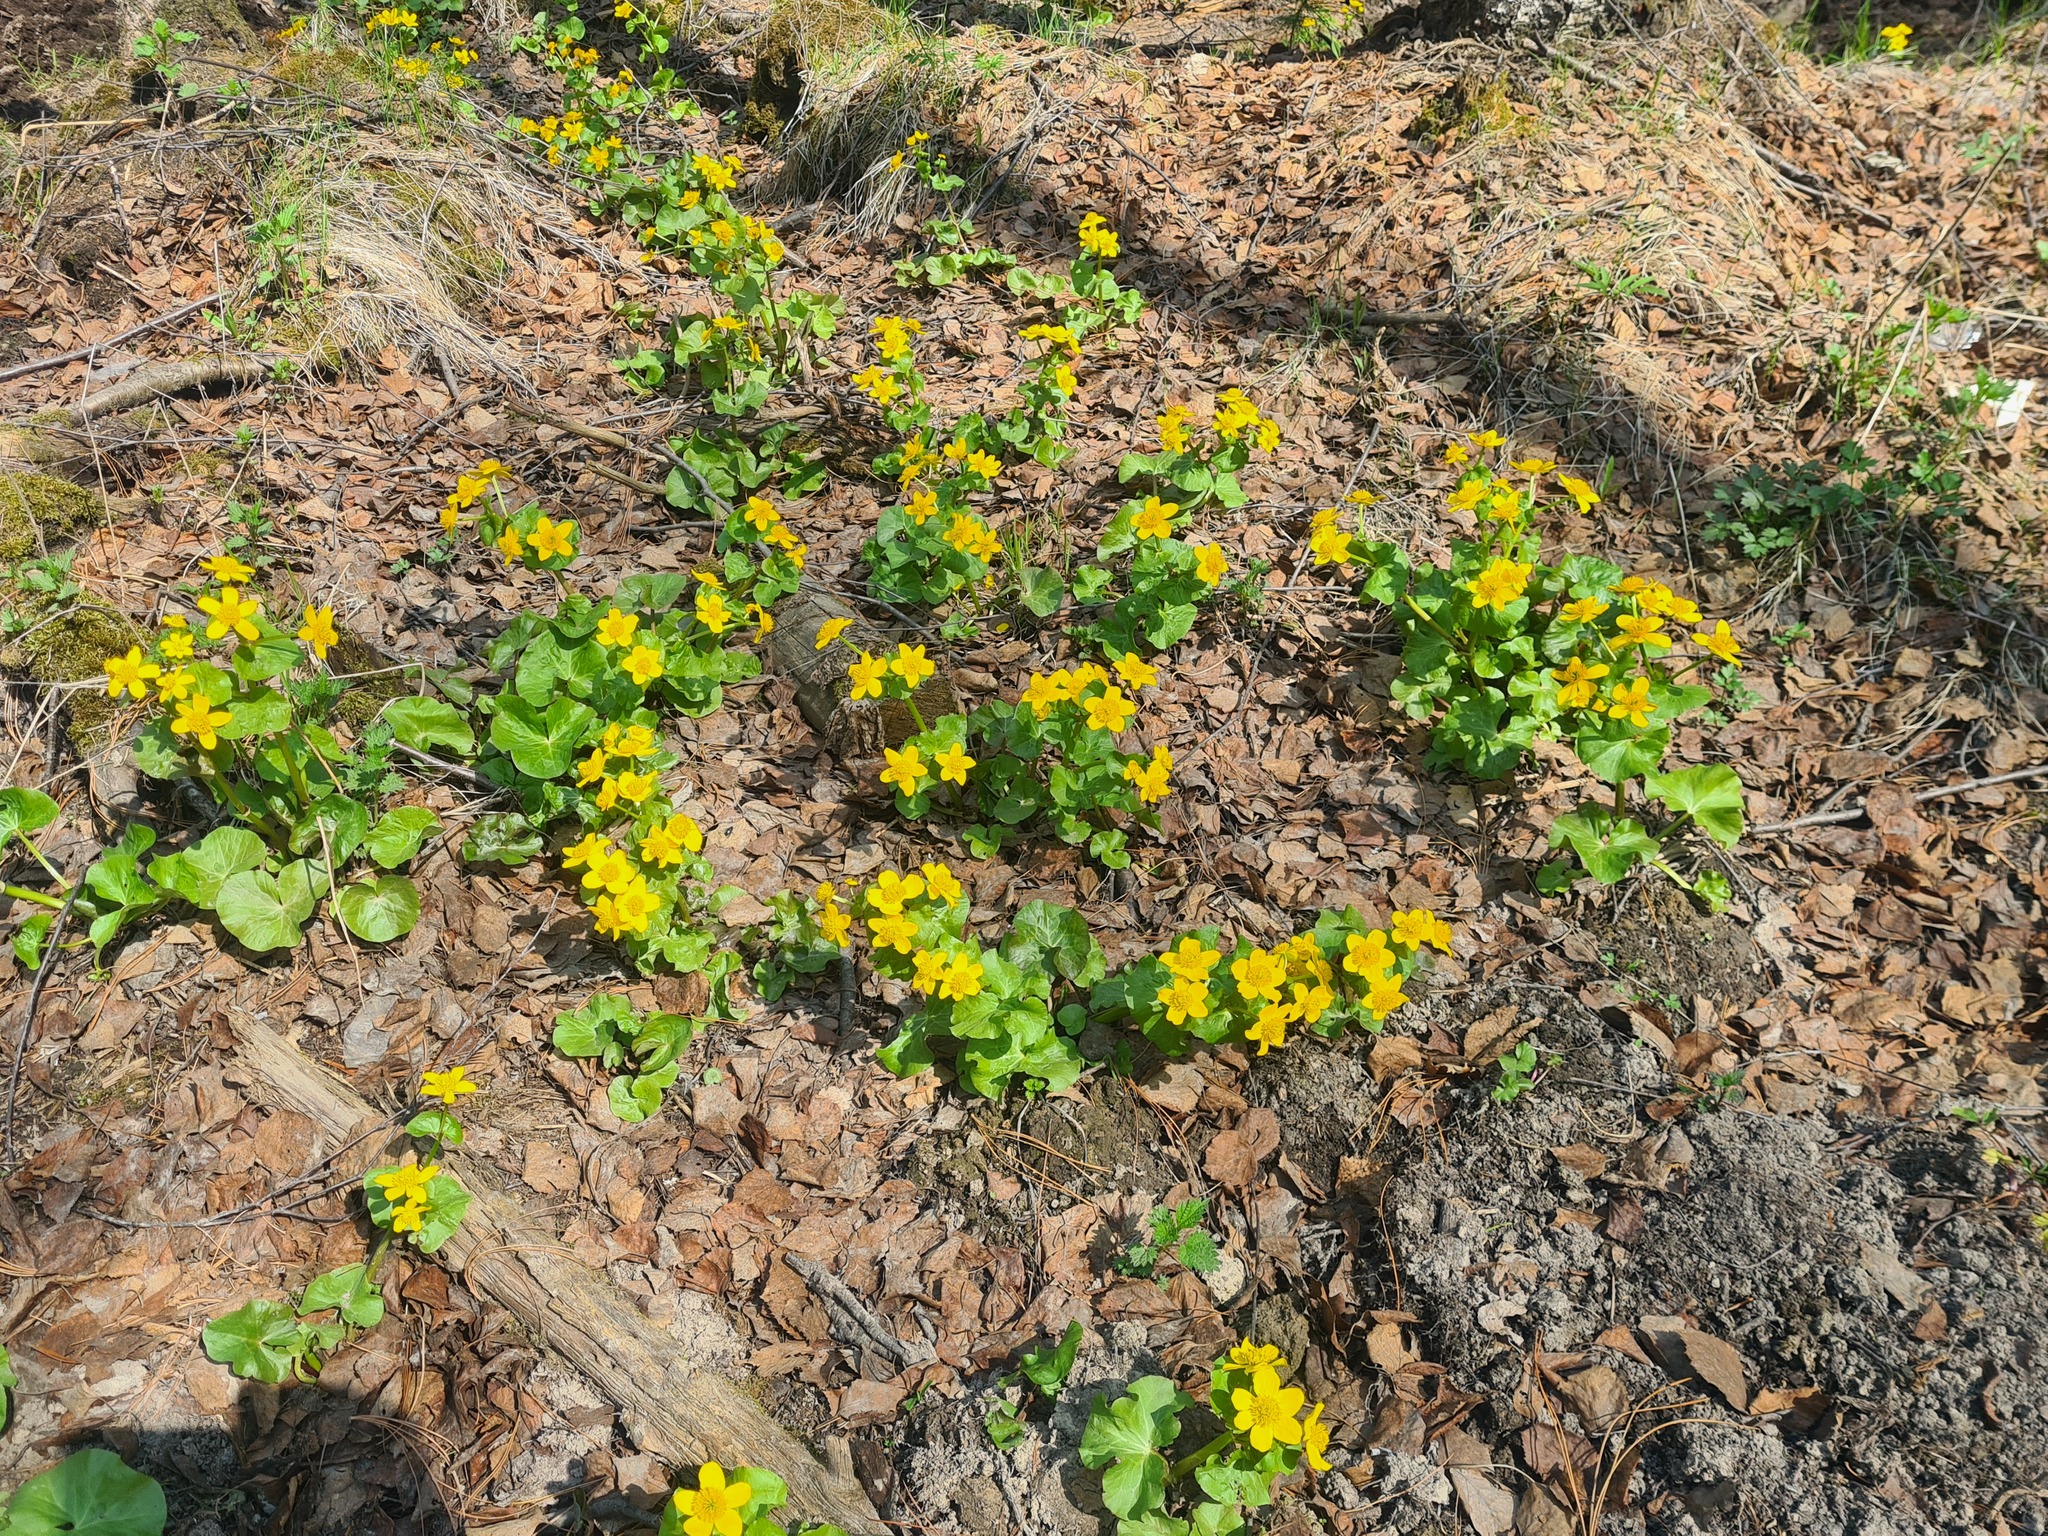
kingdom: Plantae
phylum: Tracheophyta
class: Magnoliopsida
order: Ranunculales
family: Ranunculaceae
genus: Caltha
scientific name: Caltha palustris
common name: Marsh marigold
